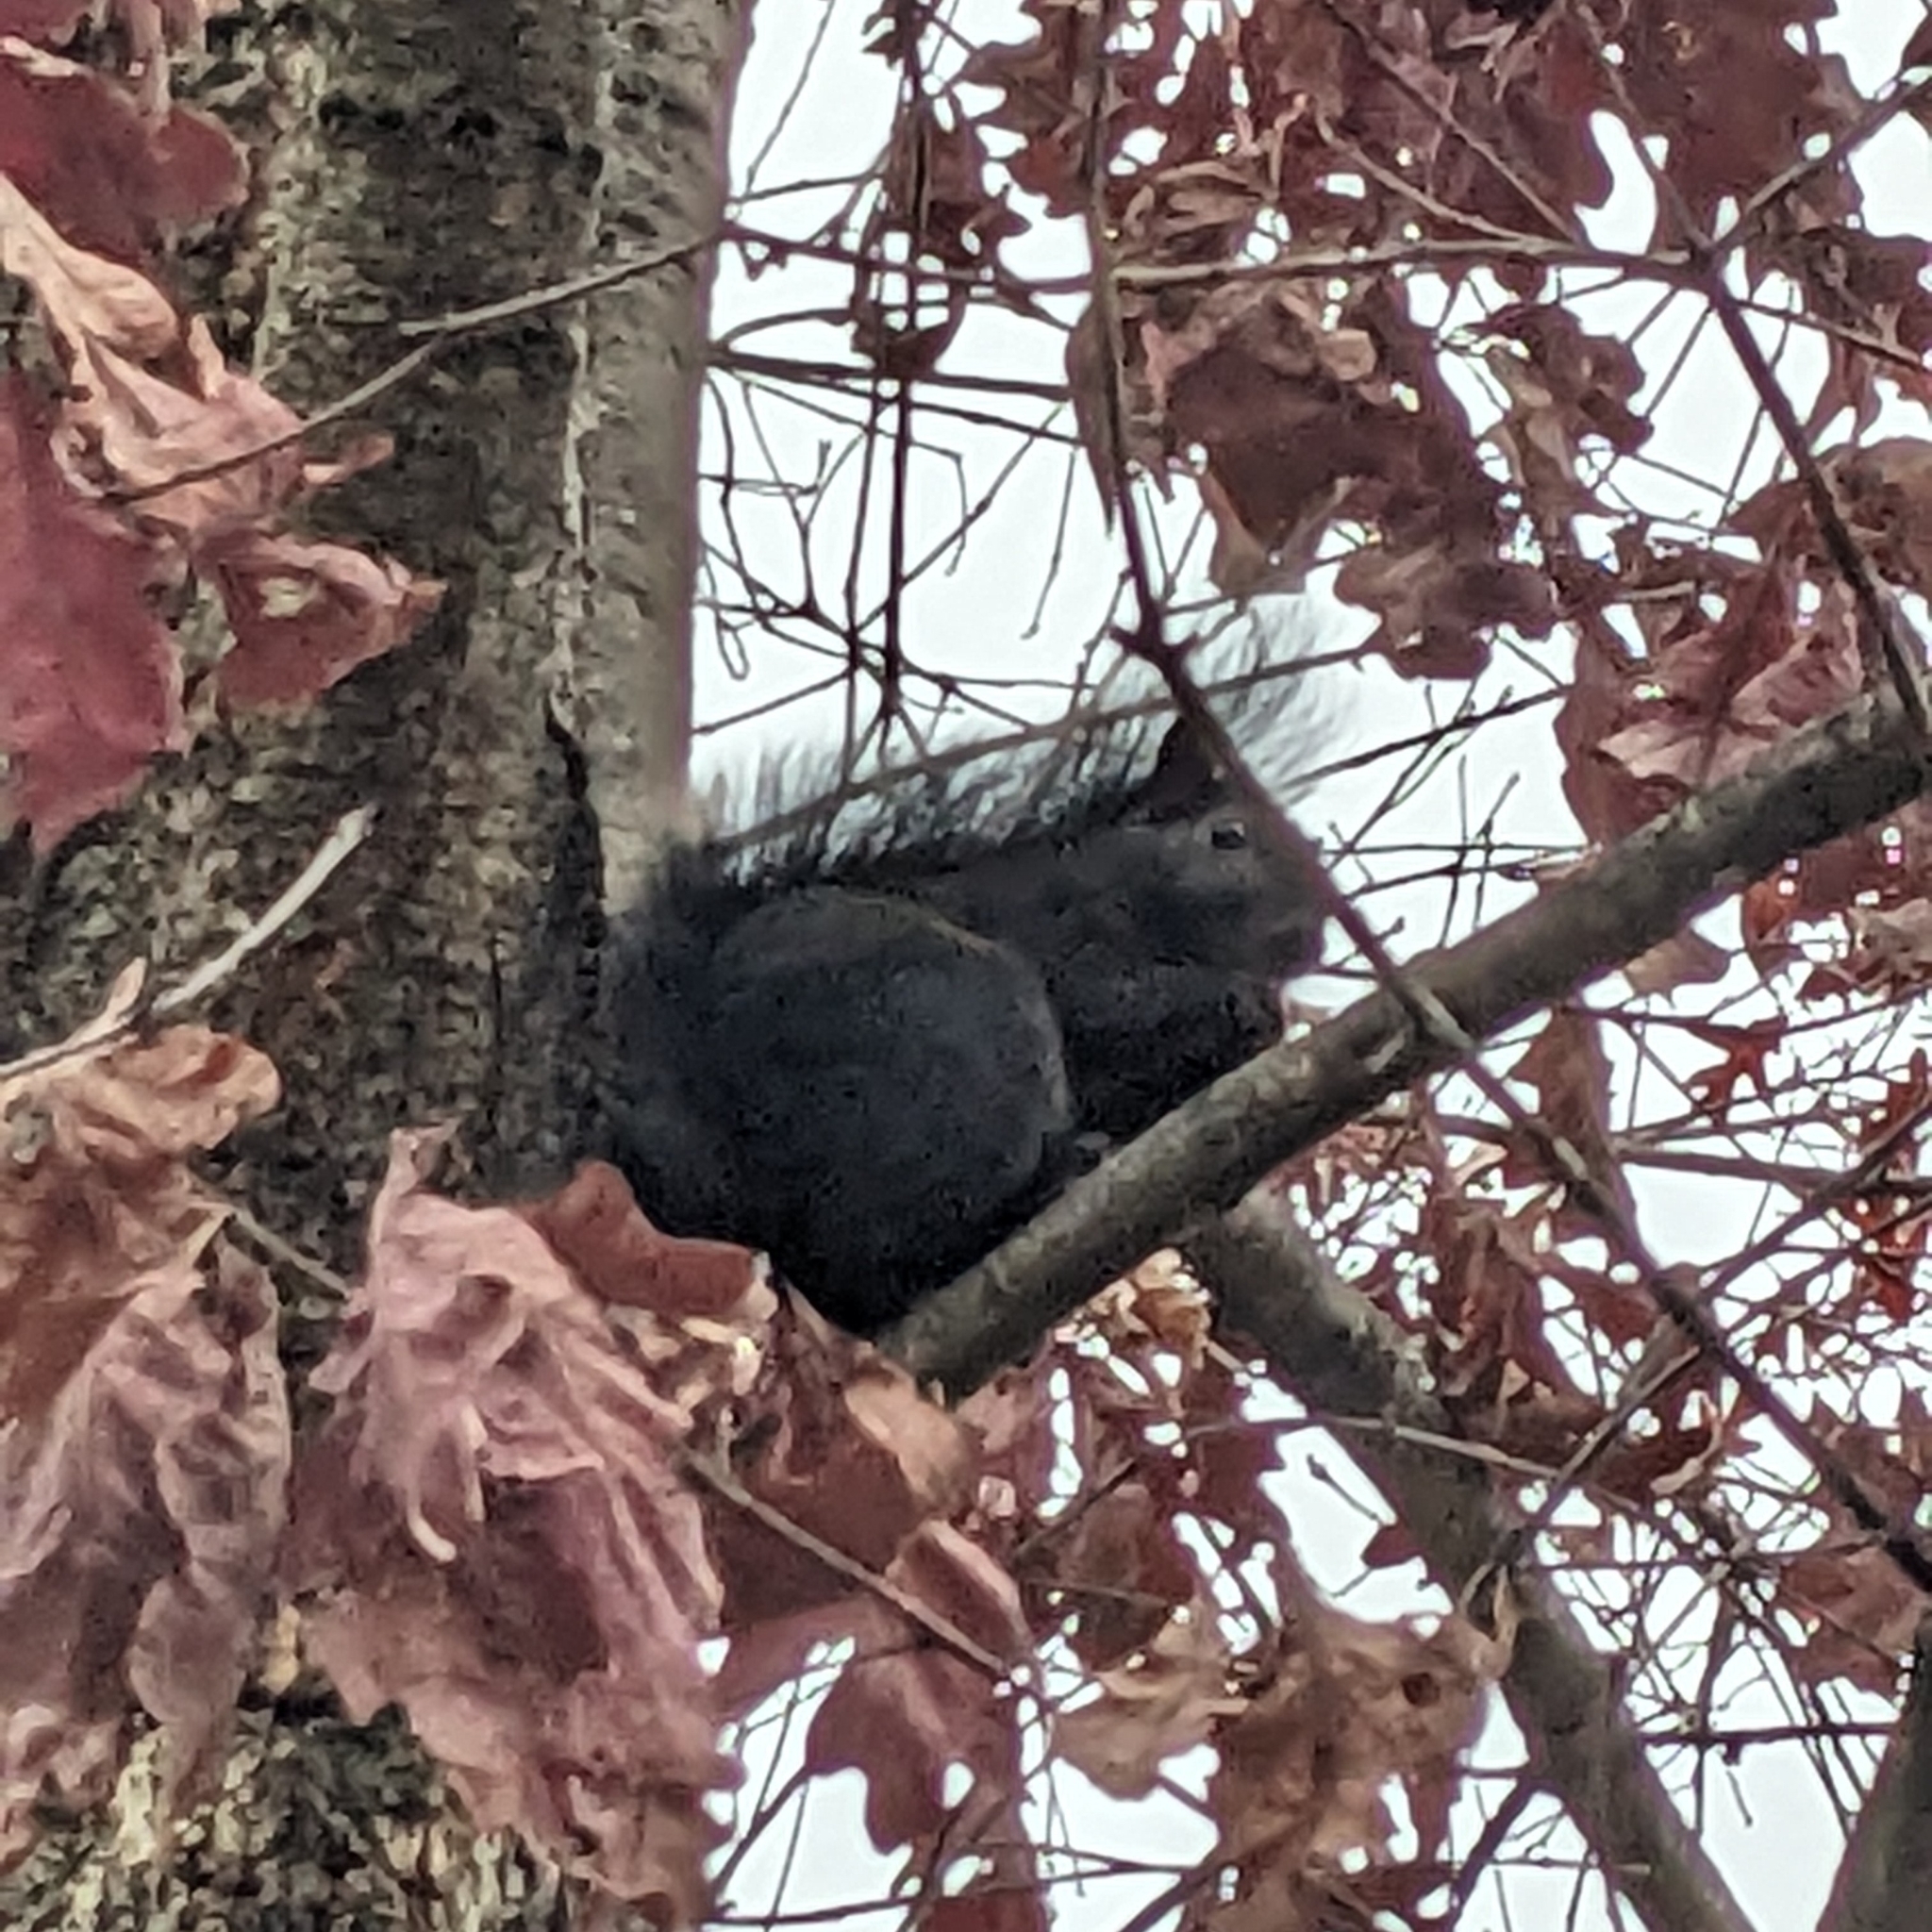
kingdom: Animalia
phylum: Chordata
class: Mammalia
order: Rodentia
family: Sciuridae
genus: Sciurus
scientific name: Sciurus carolinensis
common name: Eastern gray squirrel
